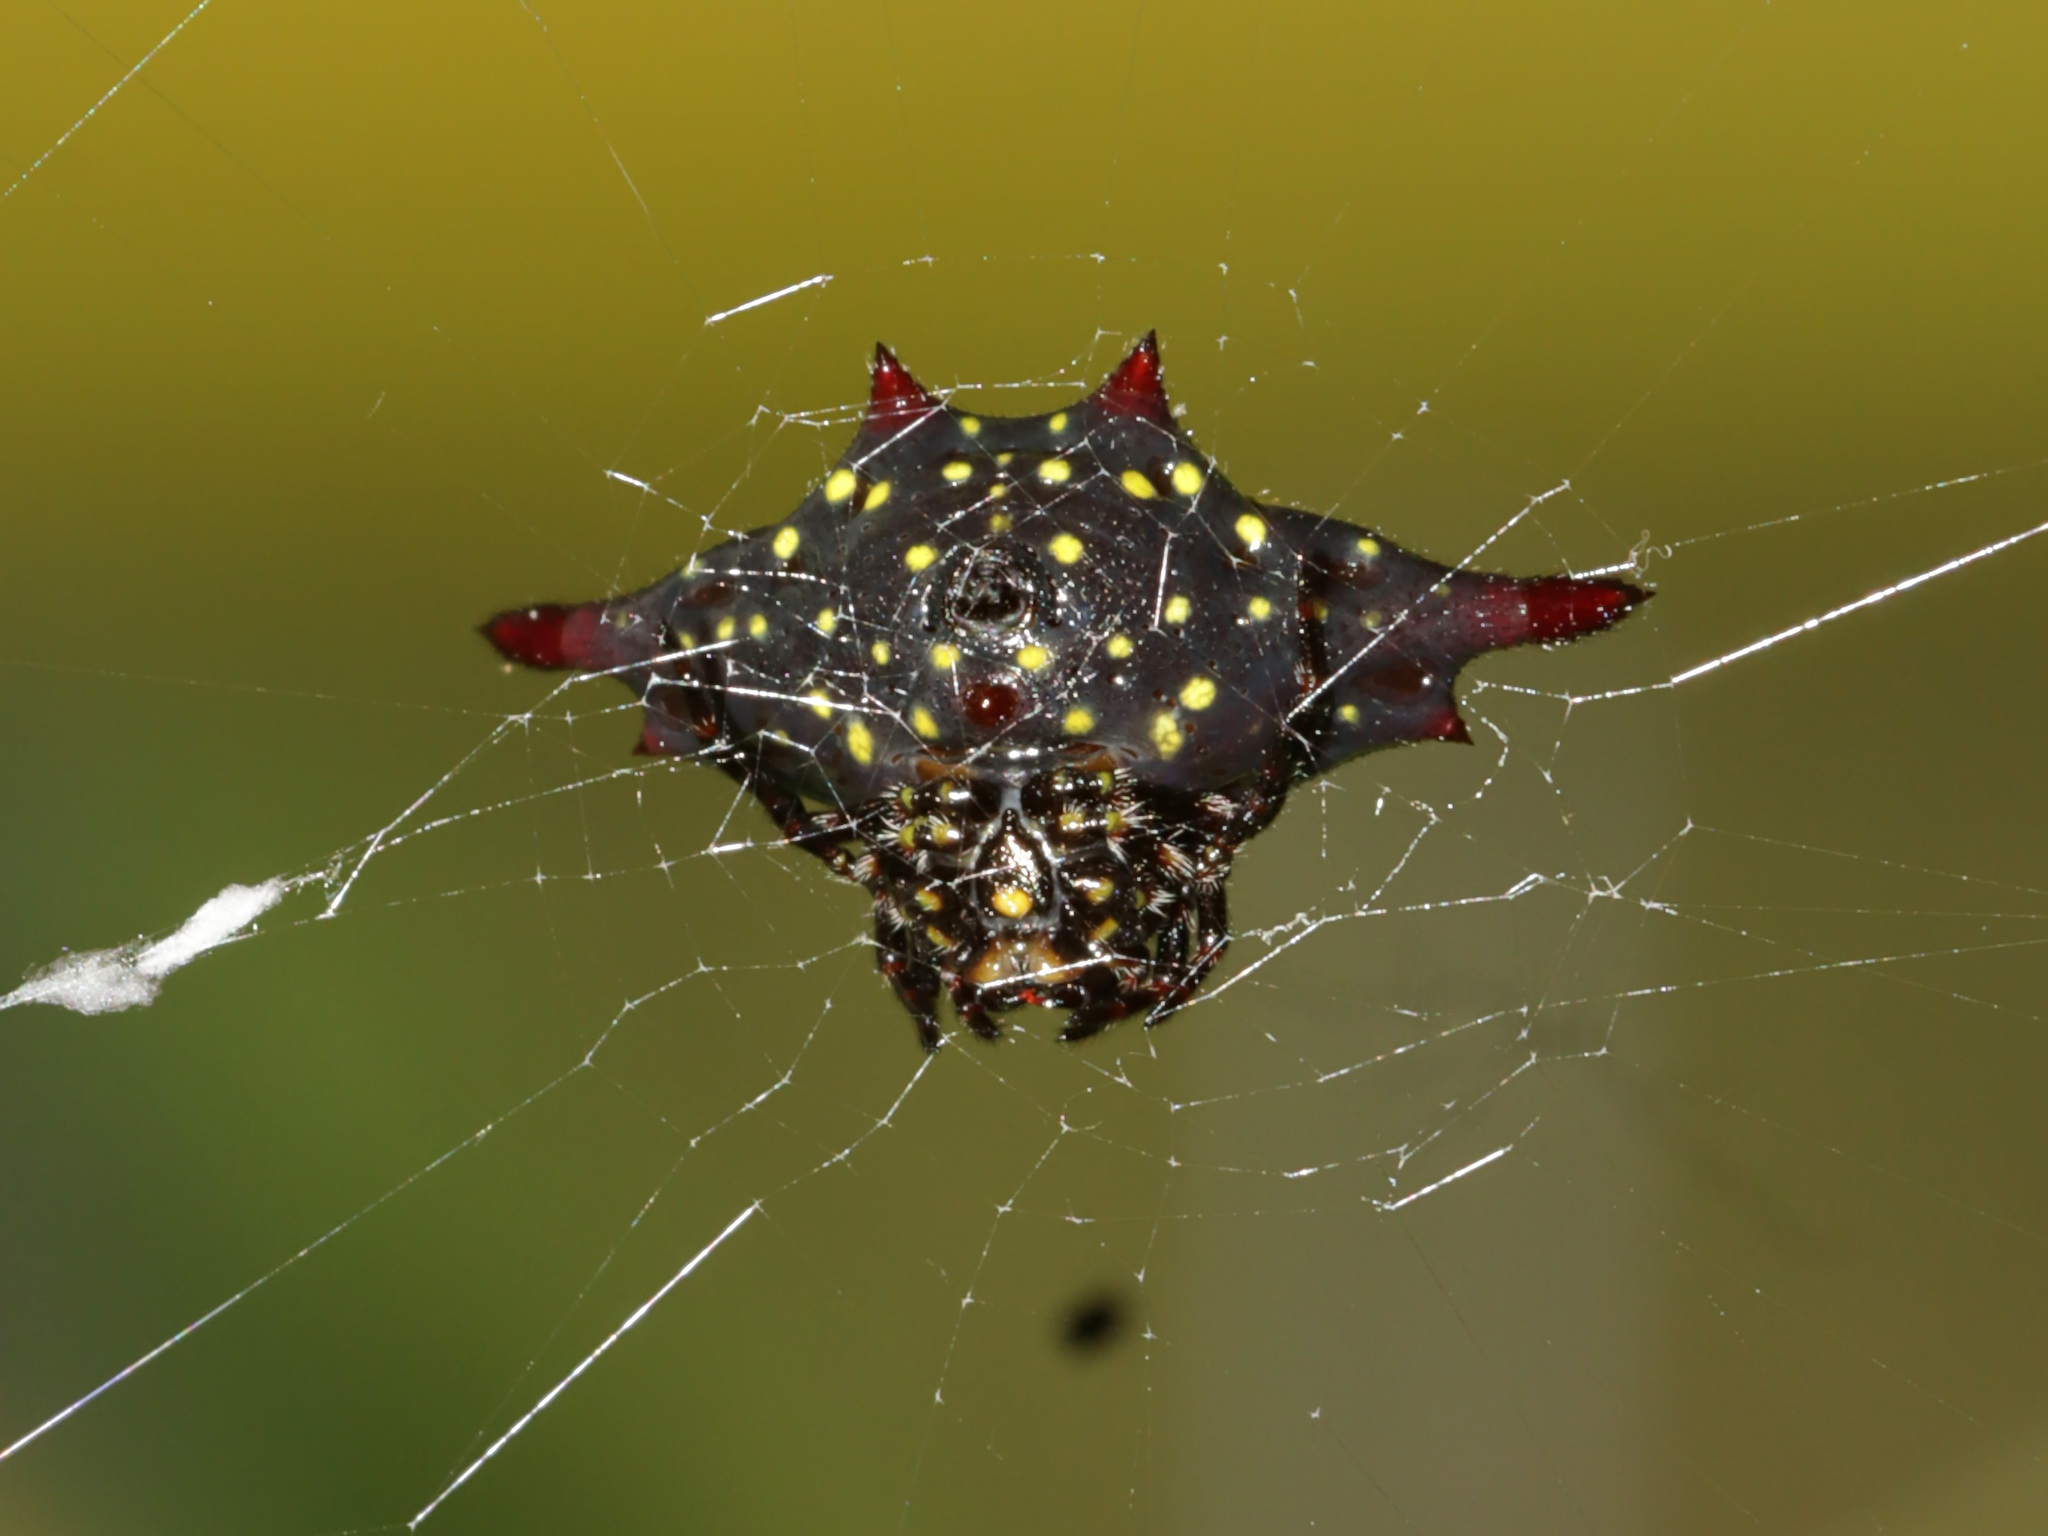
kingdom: Animalia
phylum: Arthropoda
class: Arachnida
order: Araneae
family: Araneidae
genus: Gasteracantha
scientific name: Gasteracantha diadesmia
